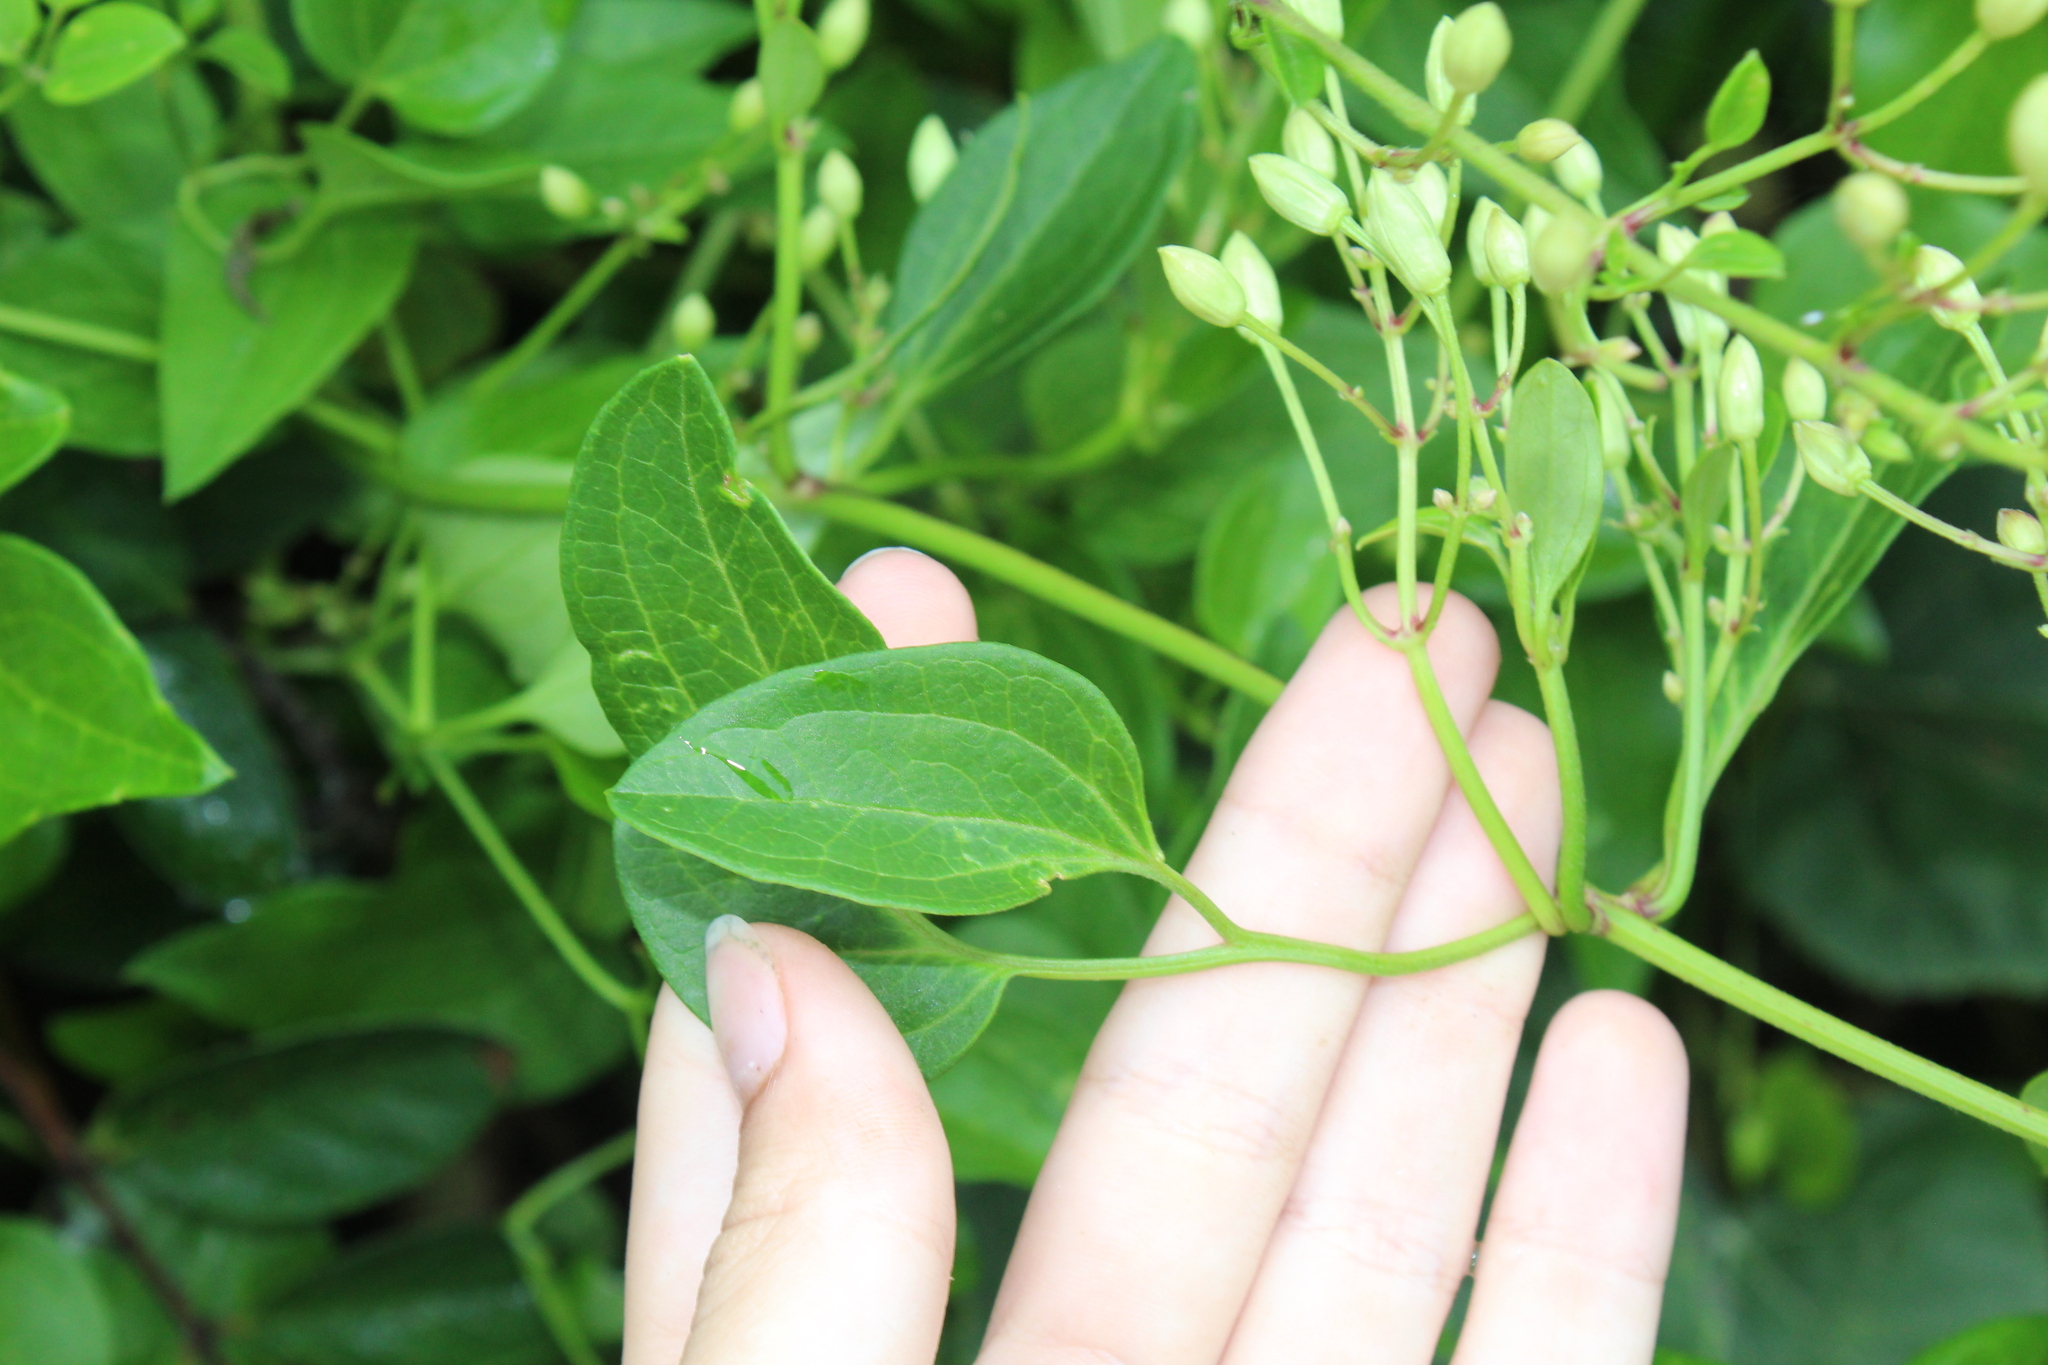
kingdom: Plantae
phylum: Tracheophyta
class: Magnoliopsida
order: Ranunculales
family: Ranunculaceae
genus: Clematis
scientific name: Clematis terniflora
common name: Sweet autumn clematis
